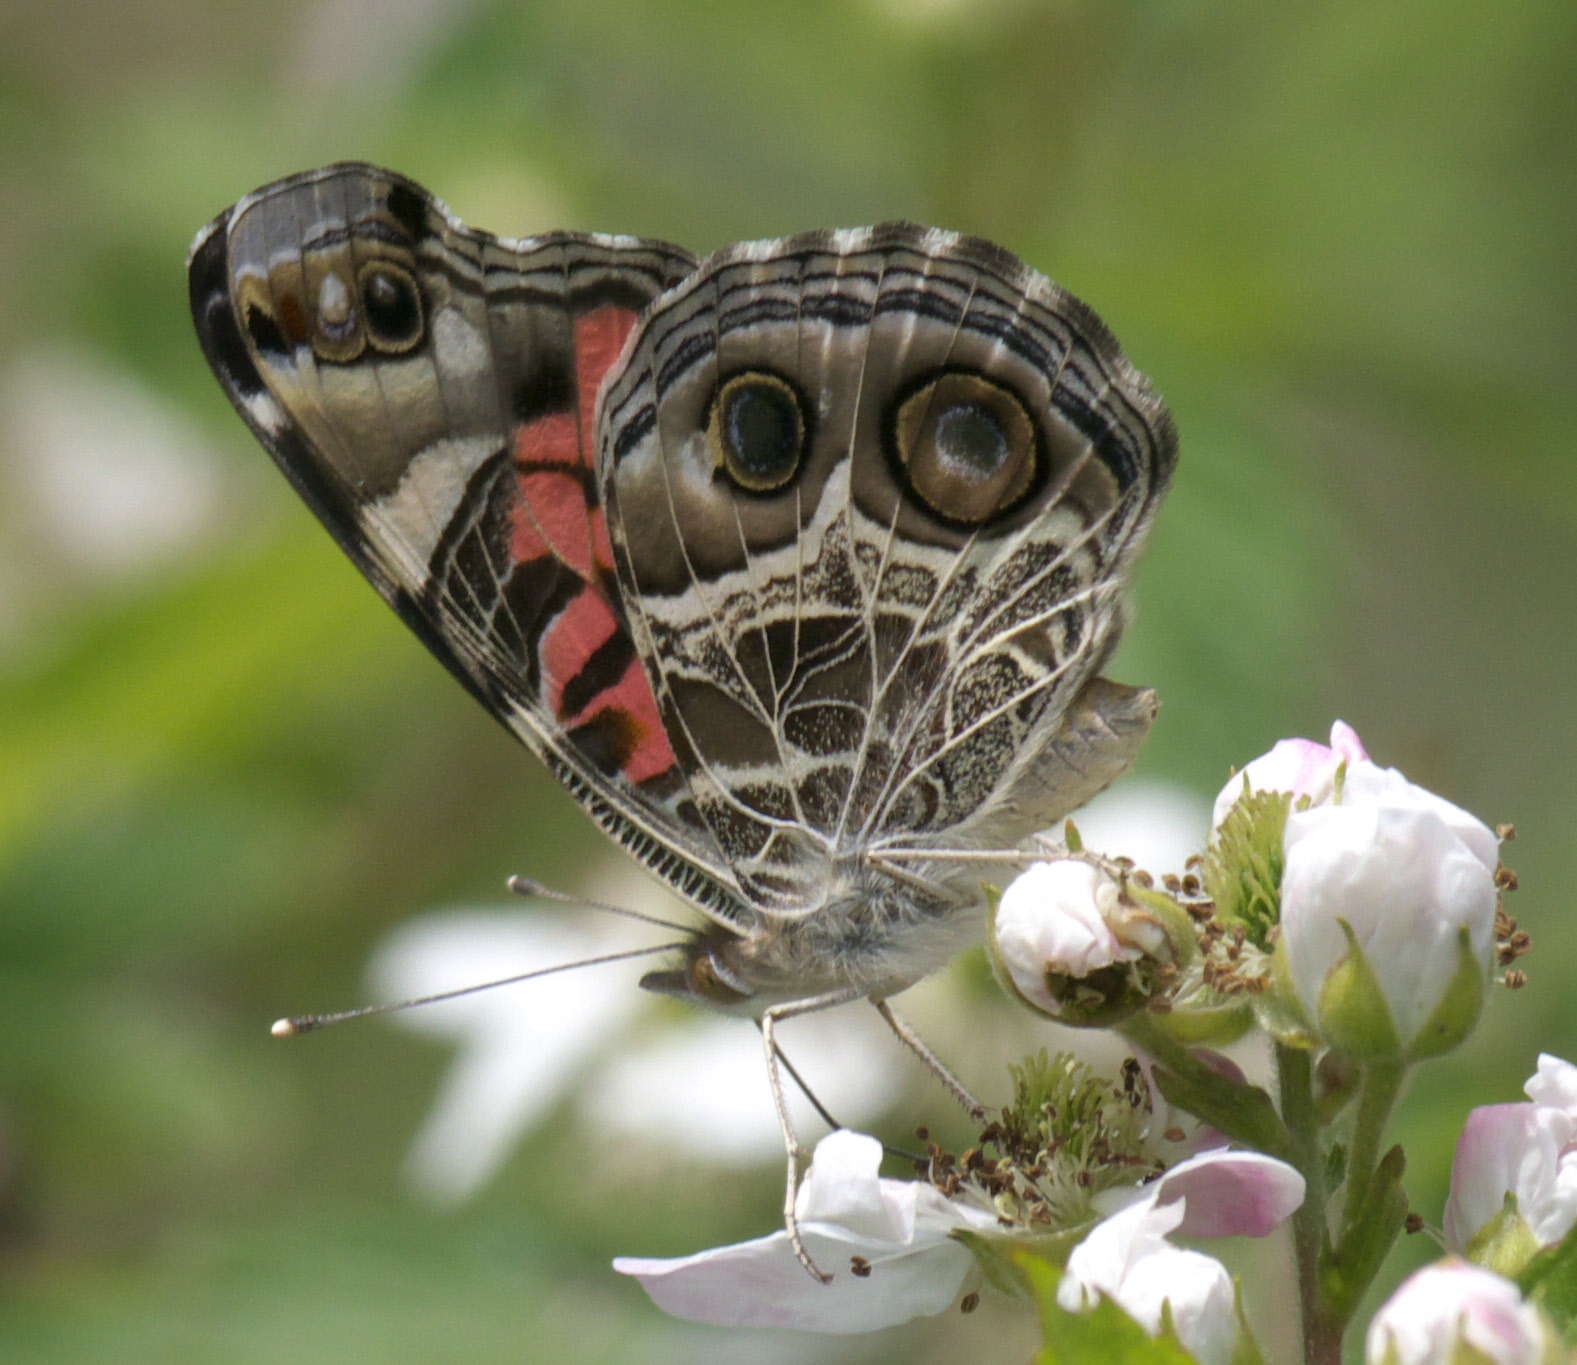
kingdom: Animalia
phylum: Arthropoda
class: Insecta
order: Lepidoptera
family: Nymphalidae
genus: Vanessa
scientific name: Vanessa virginiensis
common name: American lady
